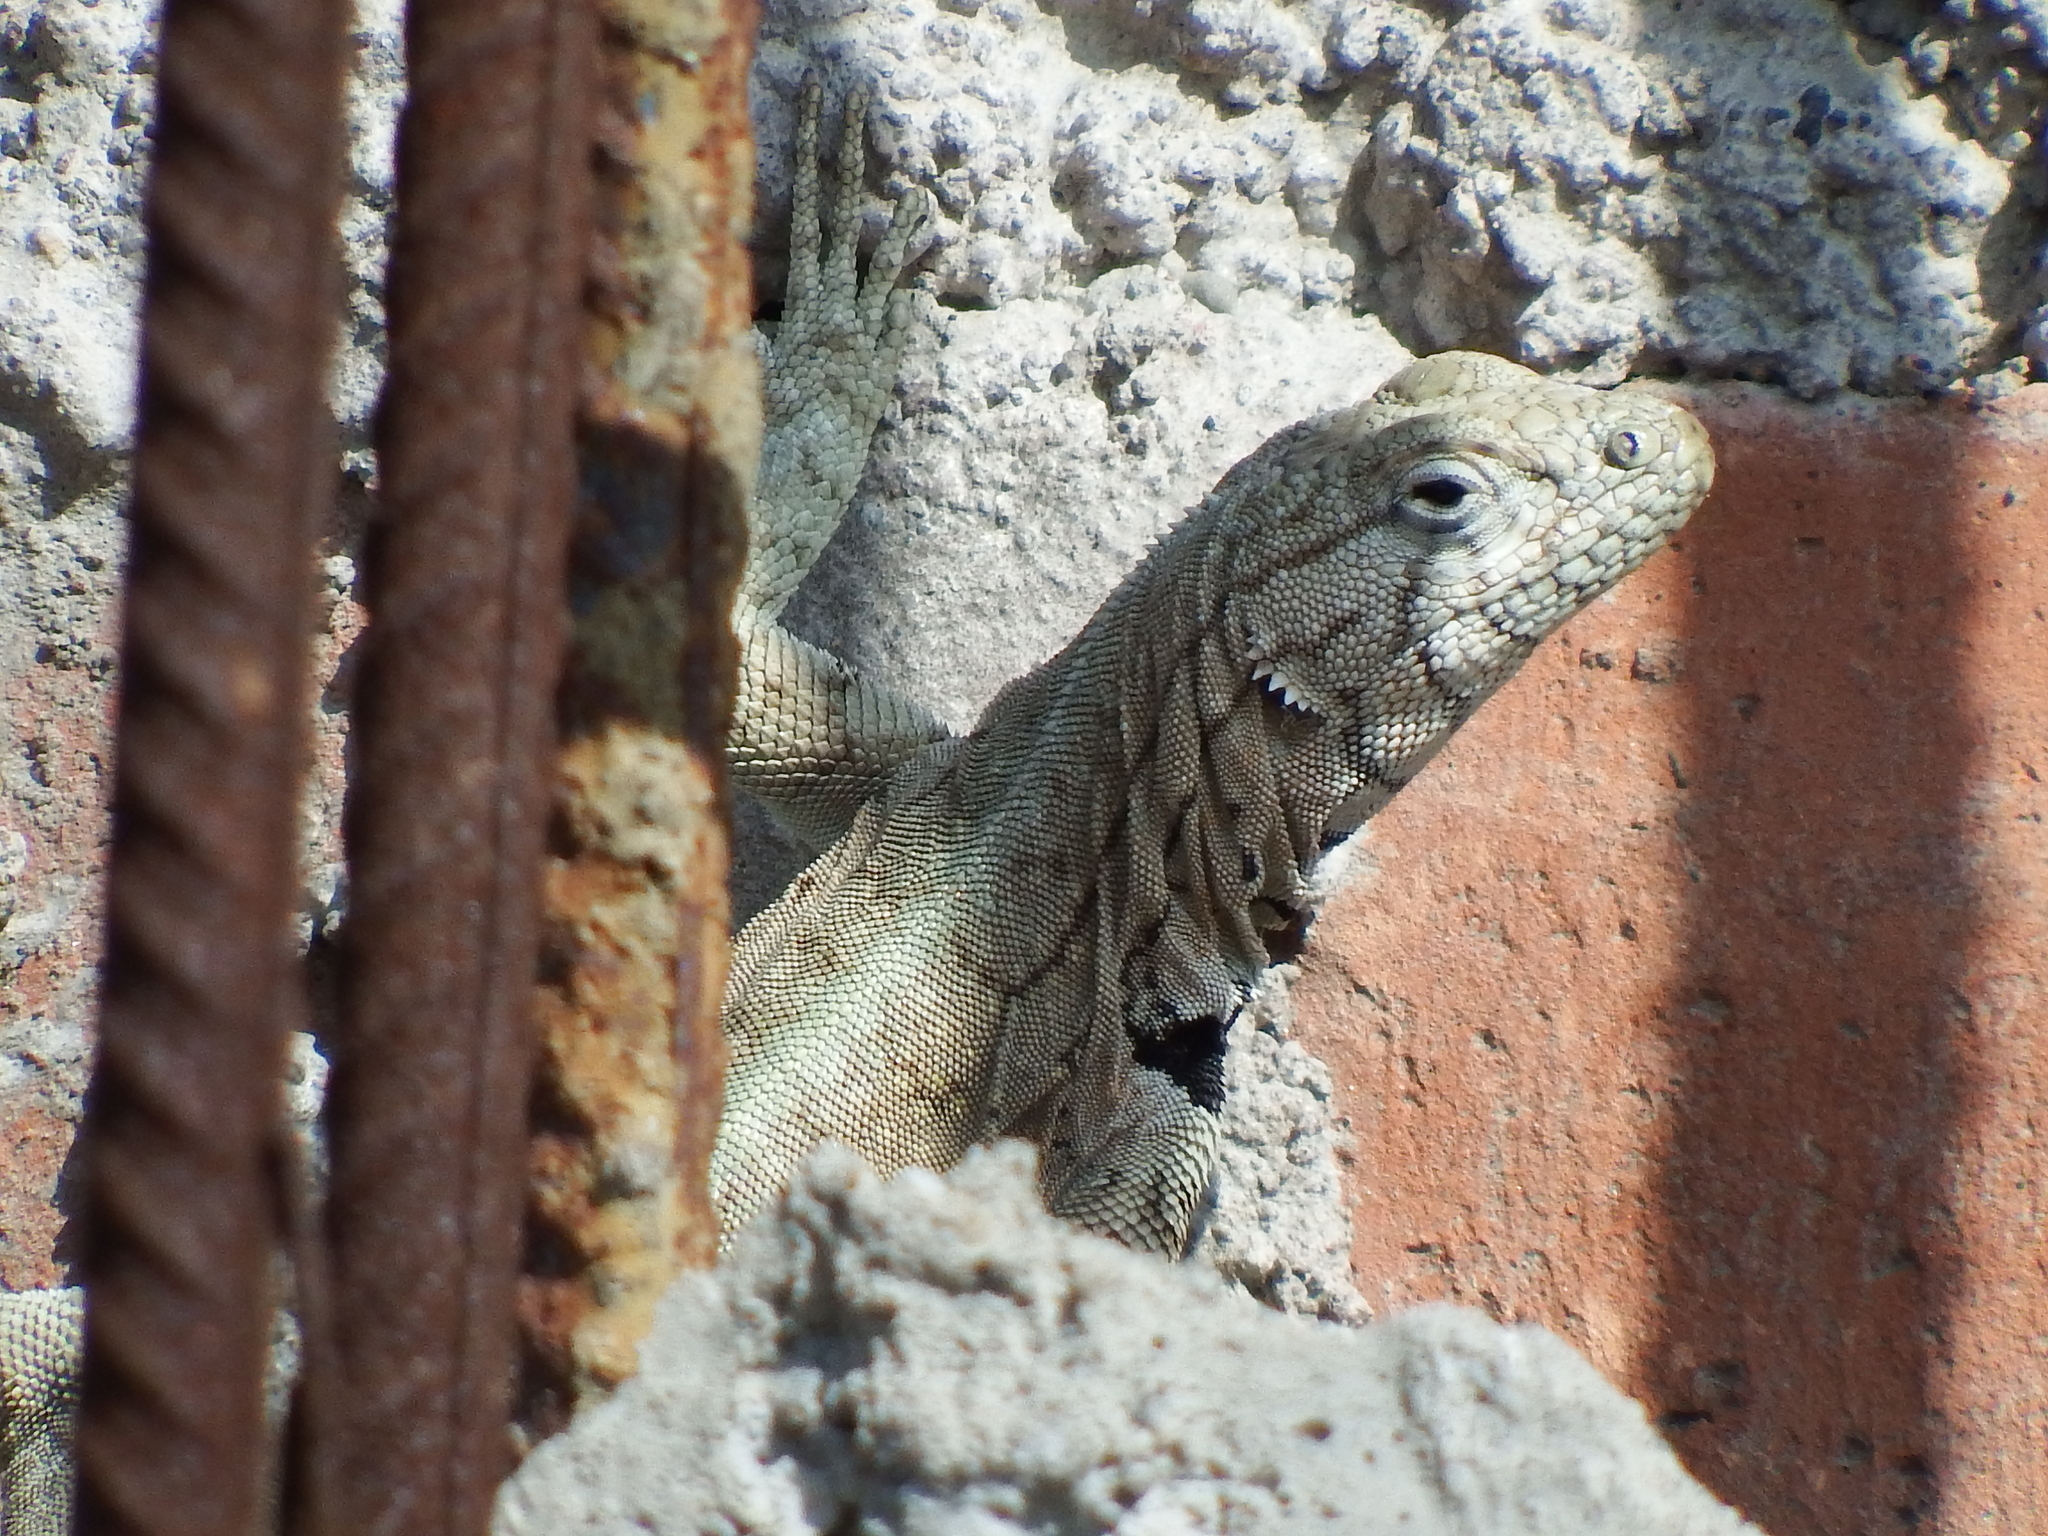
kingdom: Animalia
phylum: Chordata
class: Squamata
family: Tropiduridae
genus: Microlophus
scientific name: Microlophus peruvianus
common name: Peru pacific iguana
